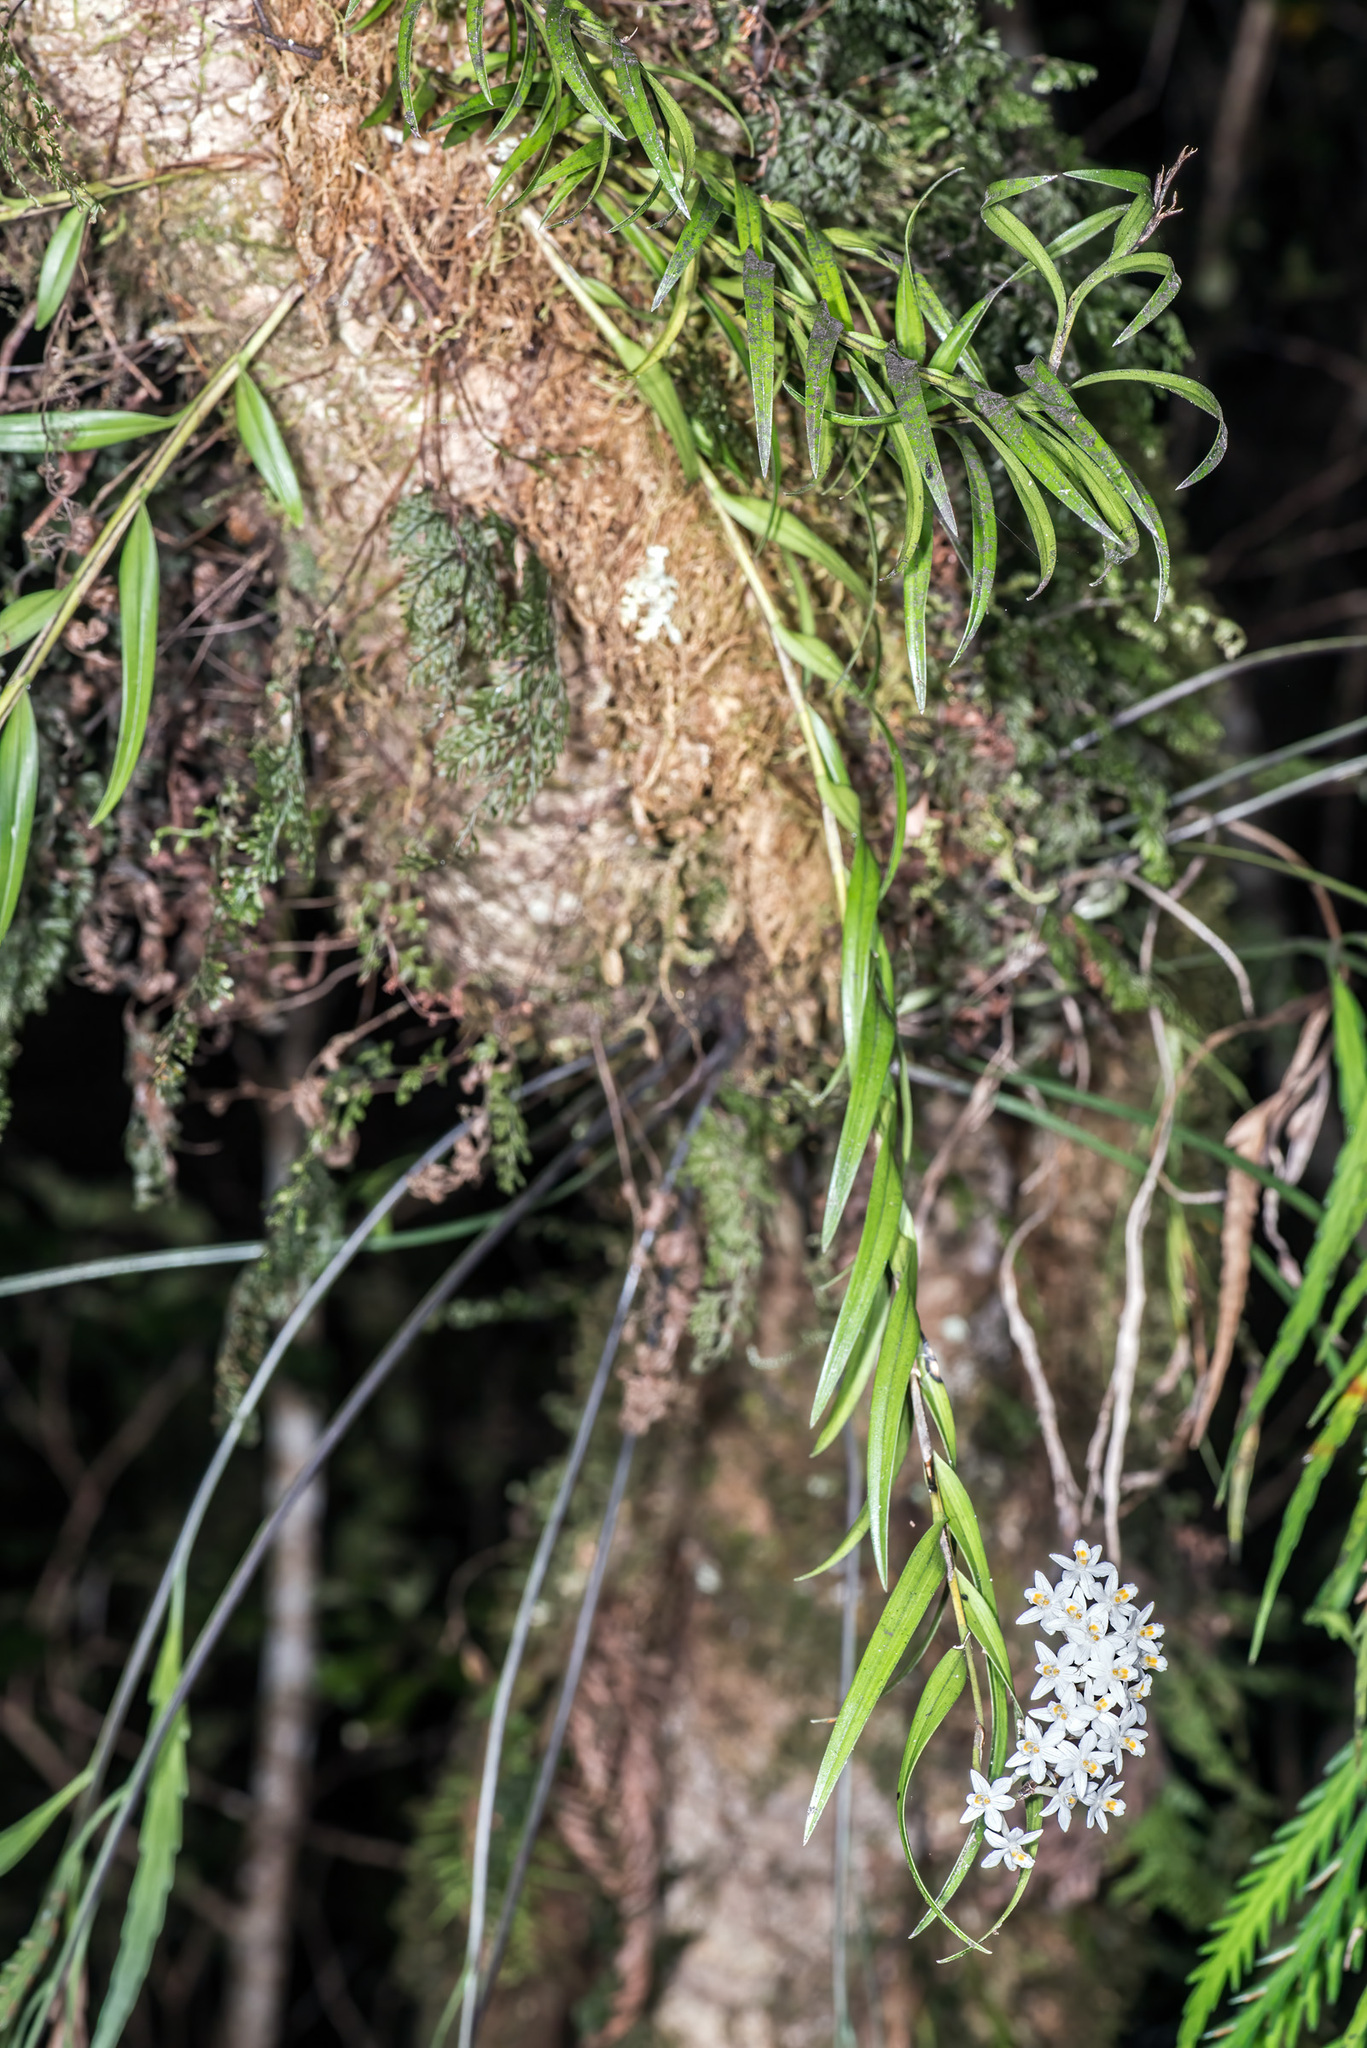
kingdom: Plantae
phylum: Tracheophyta
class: Liliopsida
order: Asparagales
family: Orchidaceae
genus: Earina
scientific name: Earina autumnalis
